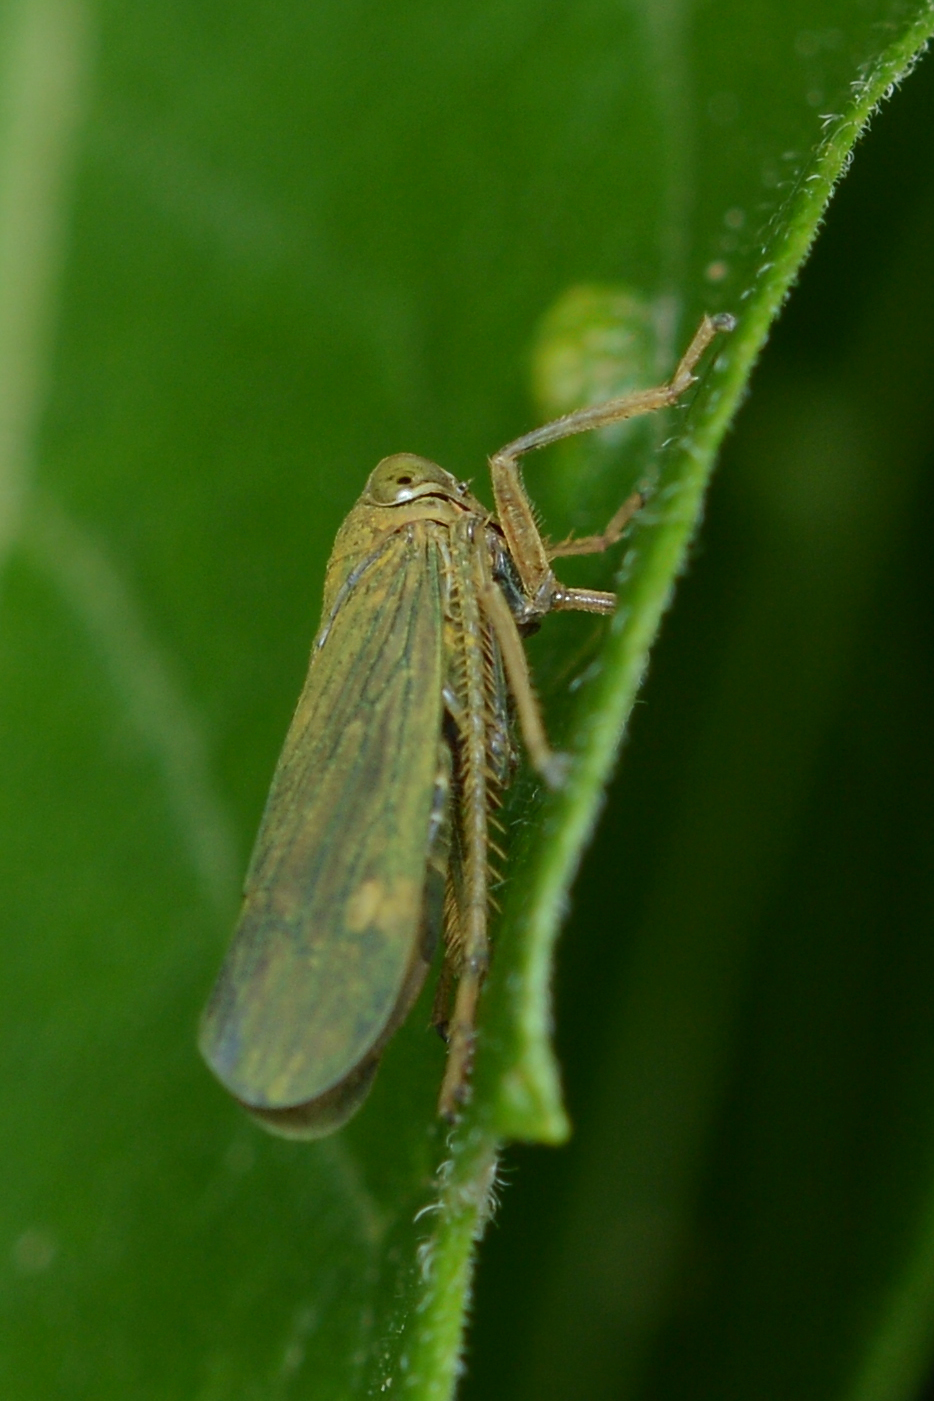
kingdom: Animalia
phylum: Arthropoda
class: Insecta
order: Hemiptera
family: Cicadellidae
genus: Jikradia
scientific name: Jikradia olitoria
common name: Coppery leafhopper
